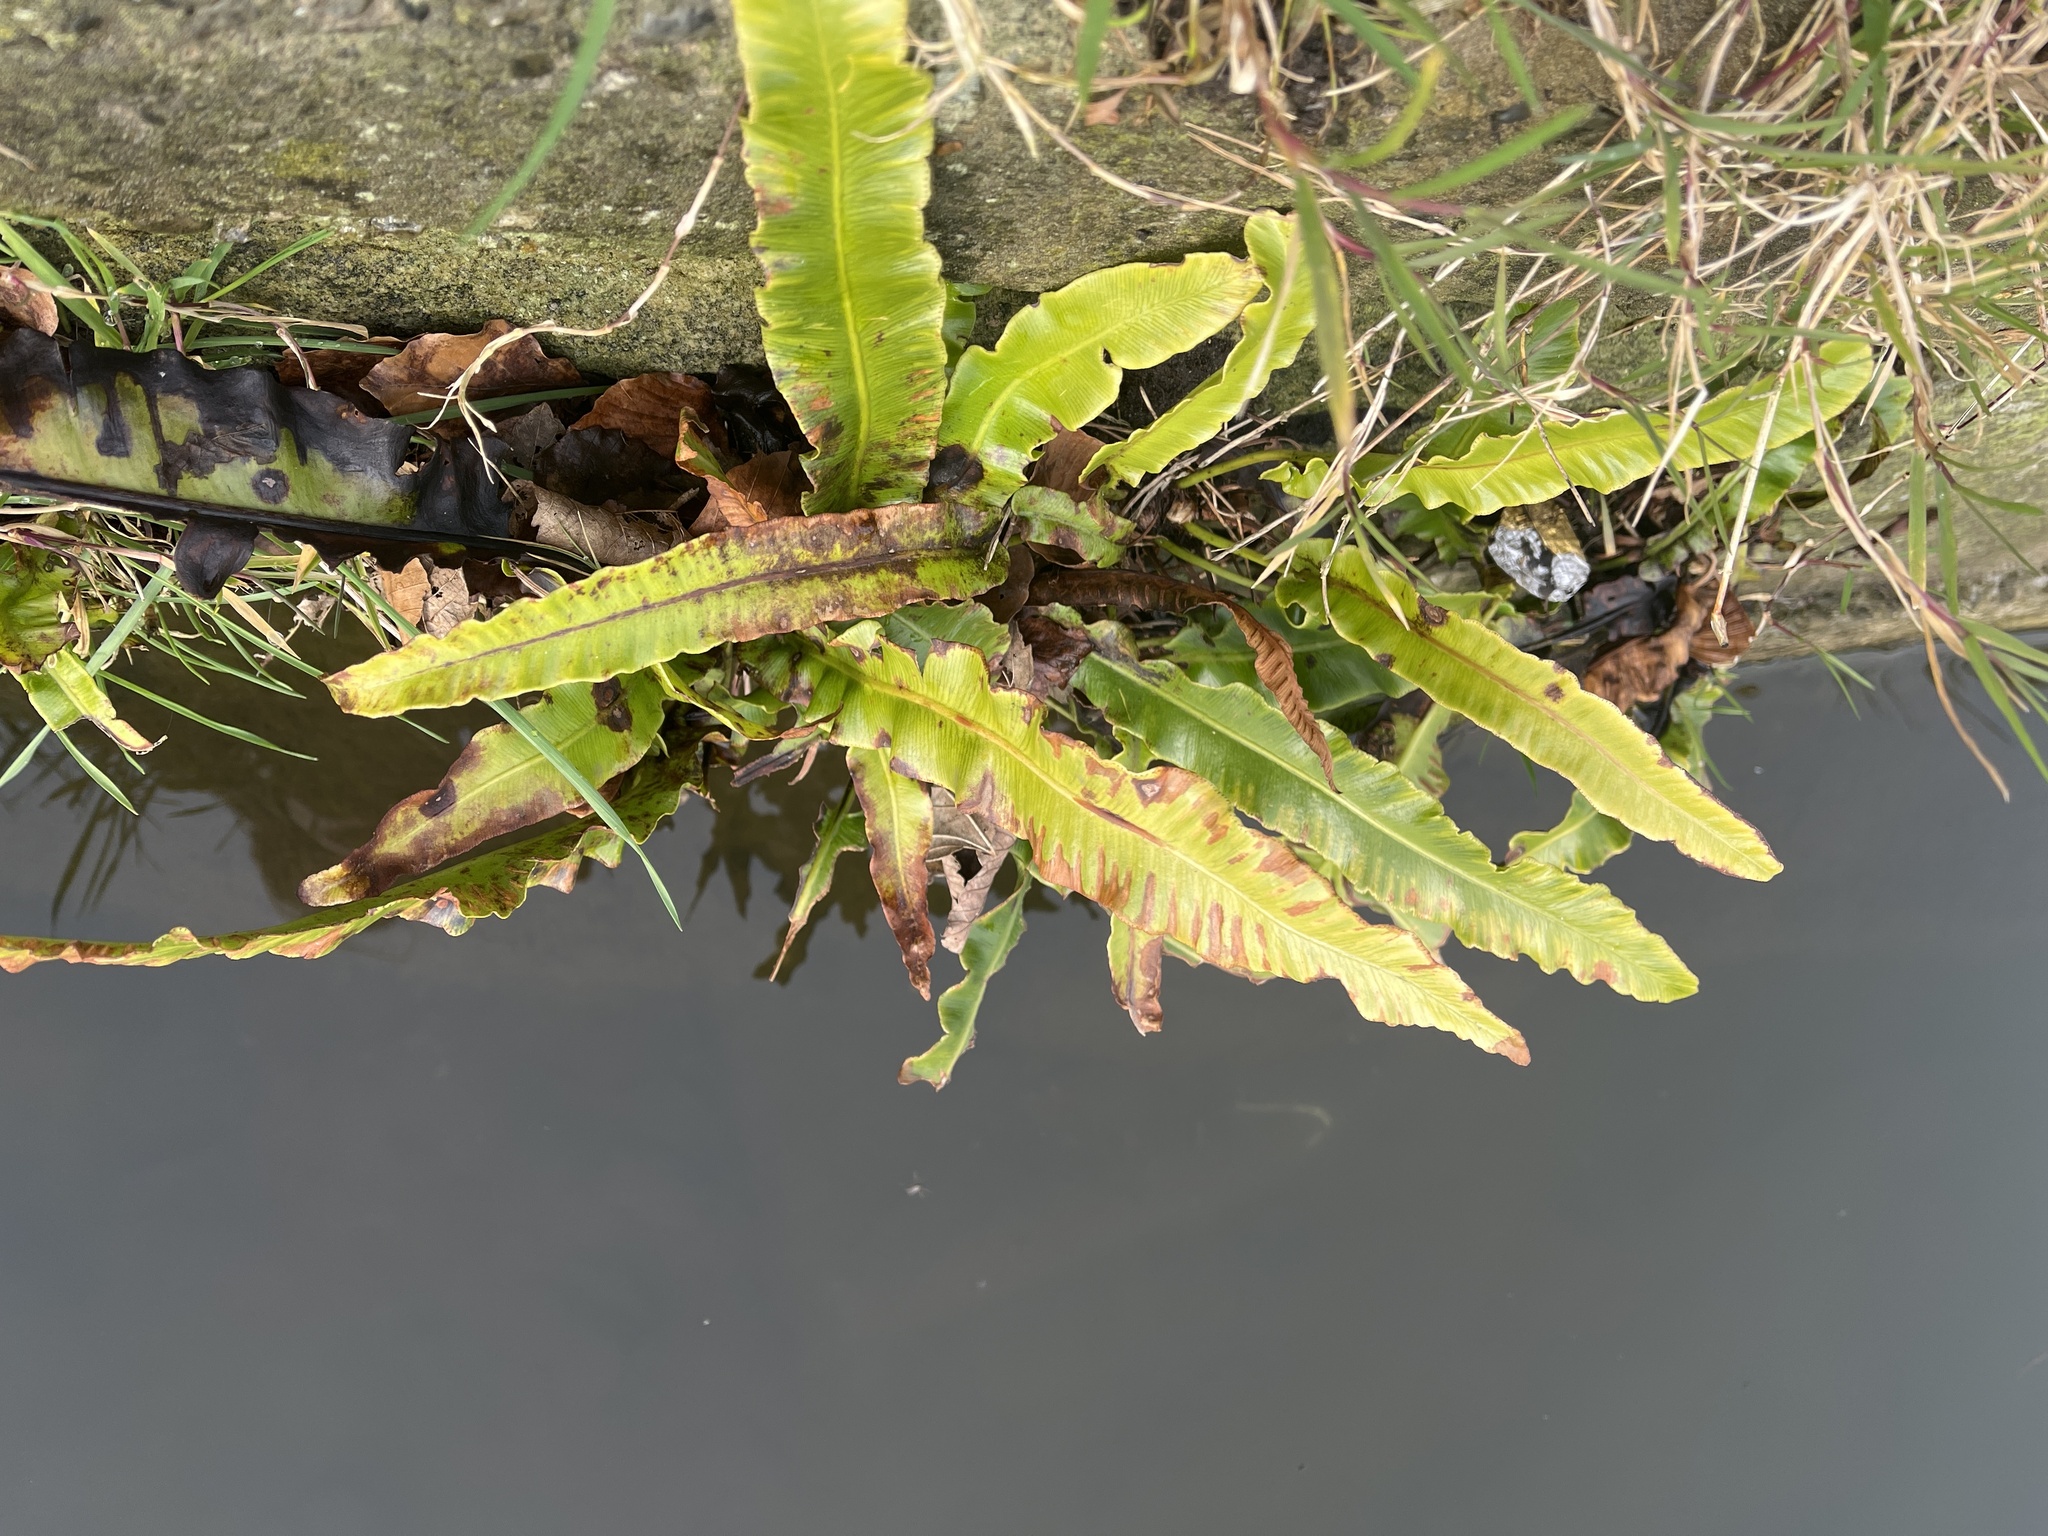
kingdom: Plantae
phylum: Tracheophyta
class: Polypodiopsida
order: Polypodiales
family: Aspleniaceae
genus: Asplenium
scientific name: Asplenium scolopendrium
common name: Hart's-tongue fern
